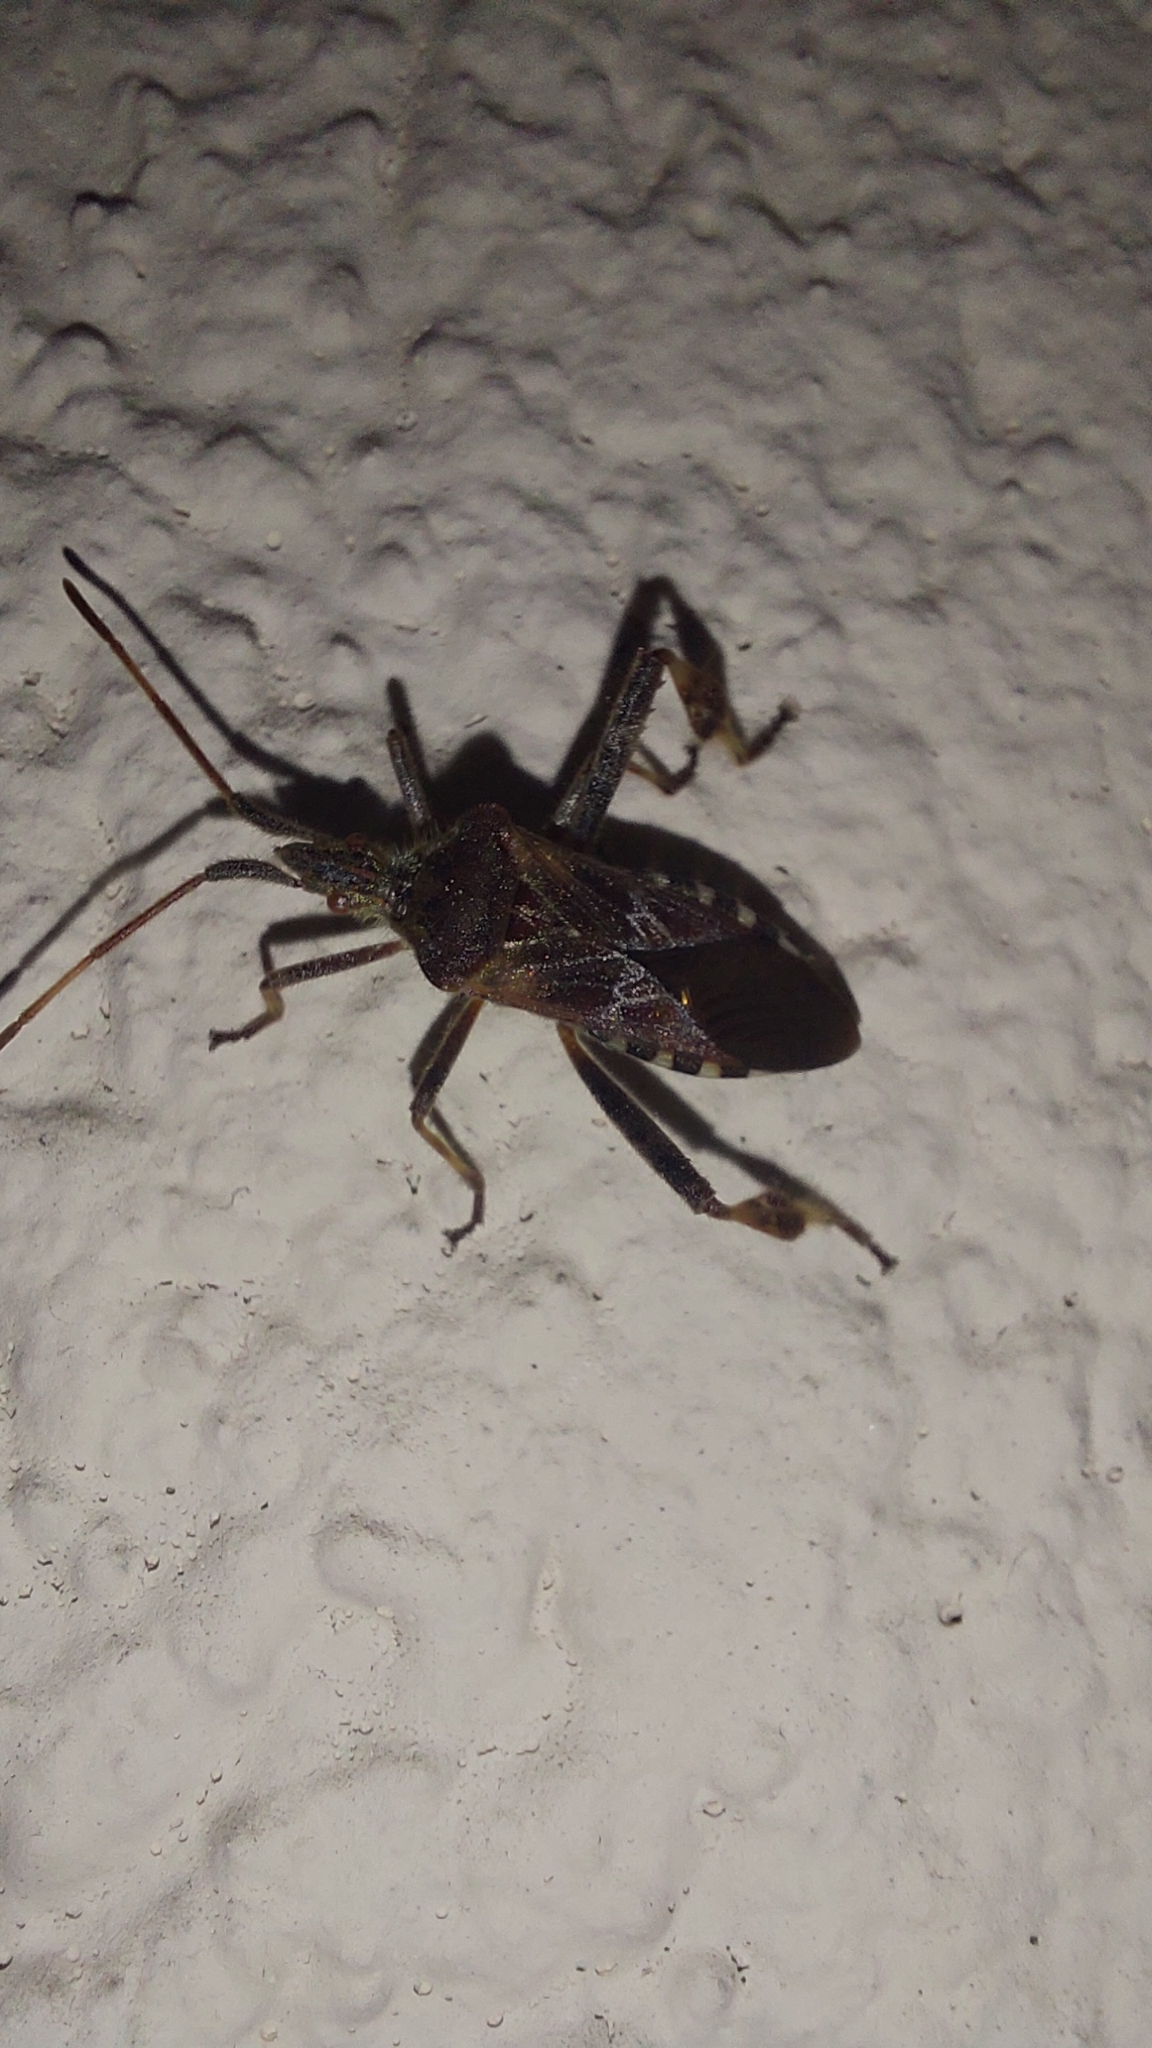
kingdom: Animalia
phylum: Arthropoda
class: Insecta
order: Hemiptera
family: Coreidae
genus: Leptoglossus
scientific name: Leptoglossus occidentalis
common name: Western conifer-seed bug
